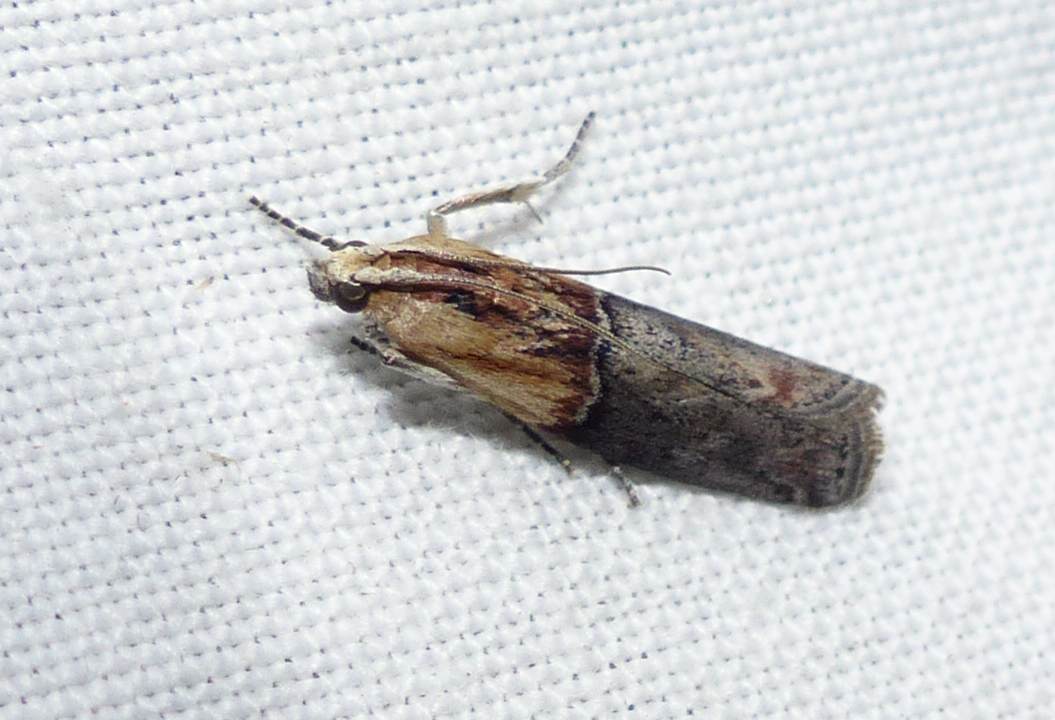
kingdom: Animalia
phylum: Arthropoda
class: Insecta
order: Lepidoptera
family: Pyralidae
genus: Sciota
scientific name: Sciota basilaris
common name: Yellow-shouldered leafroller
